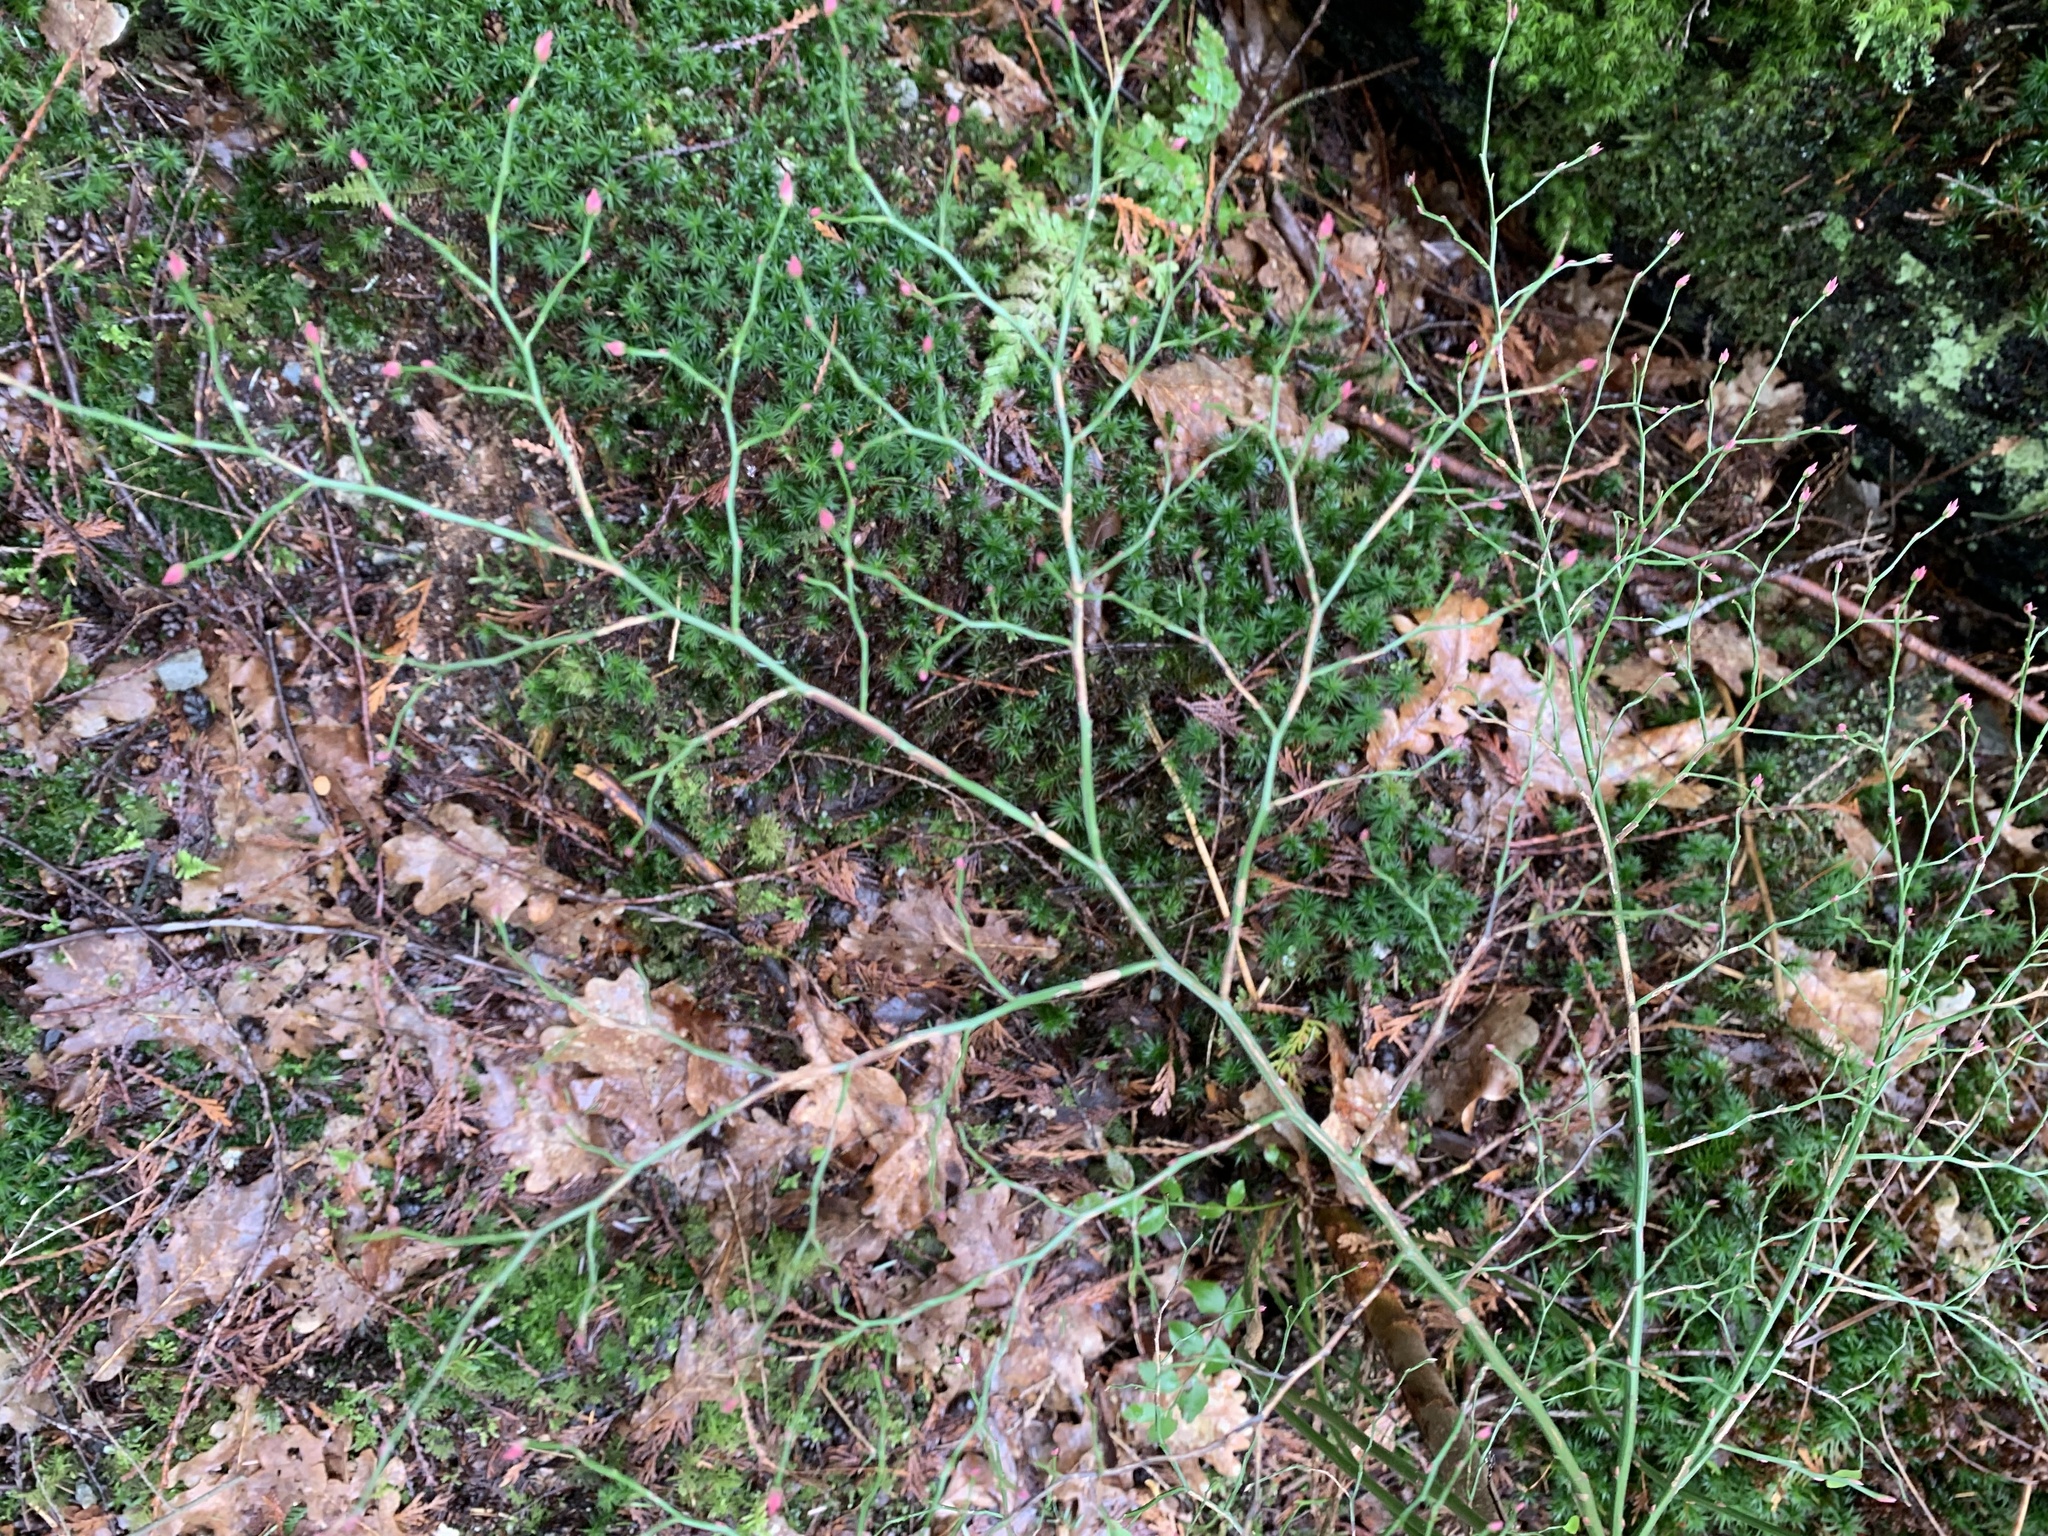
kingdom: Plantae
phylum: Tracheophyta
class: Magnoliopsida
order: Ericales
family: Ericaceae
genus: Vaccinium
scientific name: Vaccinium parvifolium
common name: Red-huckleberry
